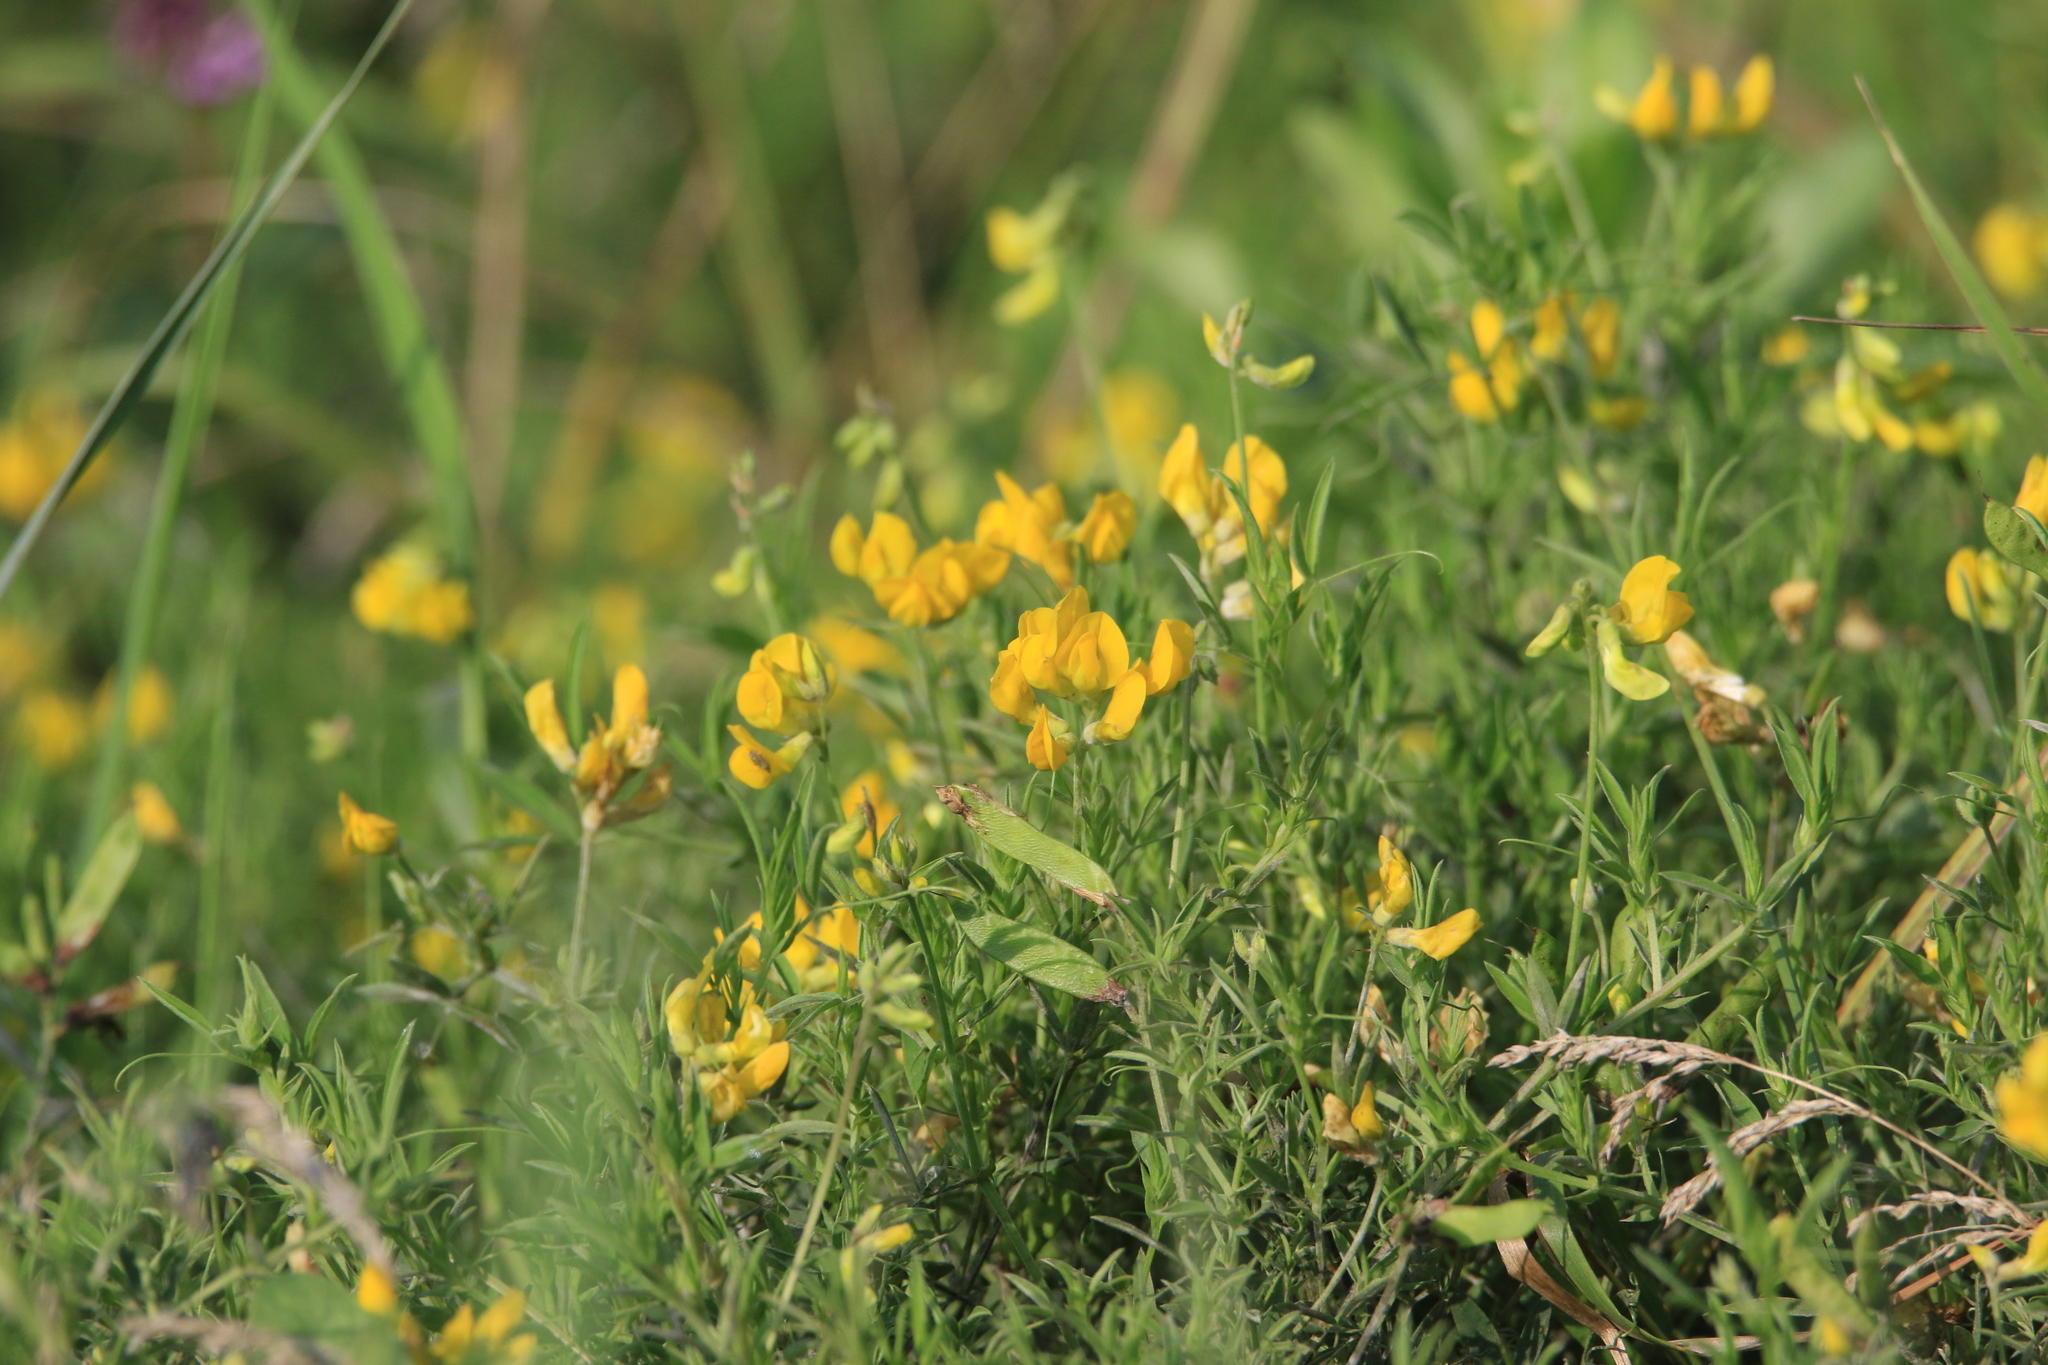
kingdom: Plantae
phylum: Tracheophyta
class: Magnoliopsida
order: Fabales
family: Fabaceae
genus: Lathyrus
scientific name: Lathyrus pratensis
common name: Meadow vetchling
